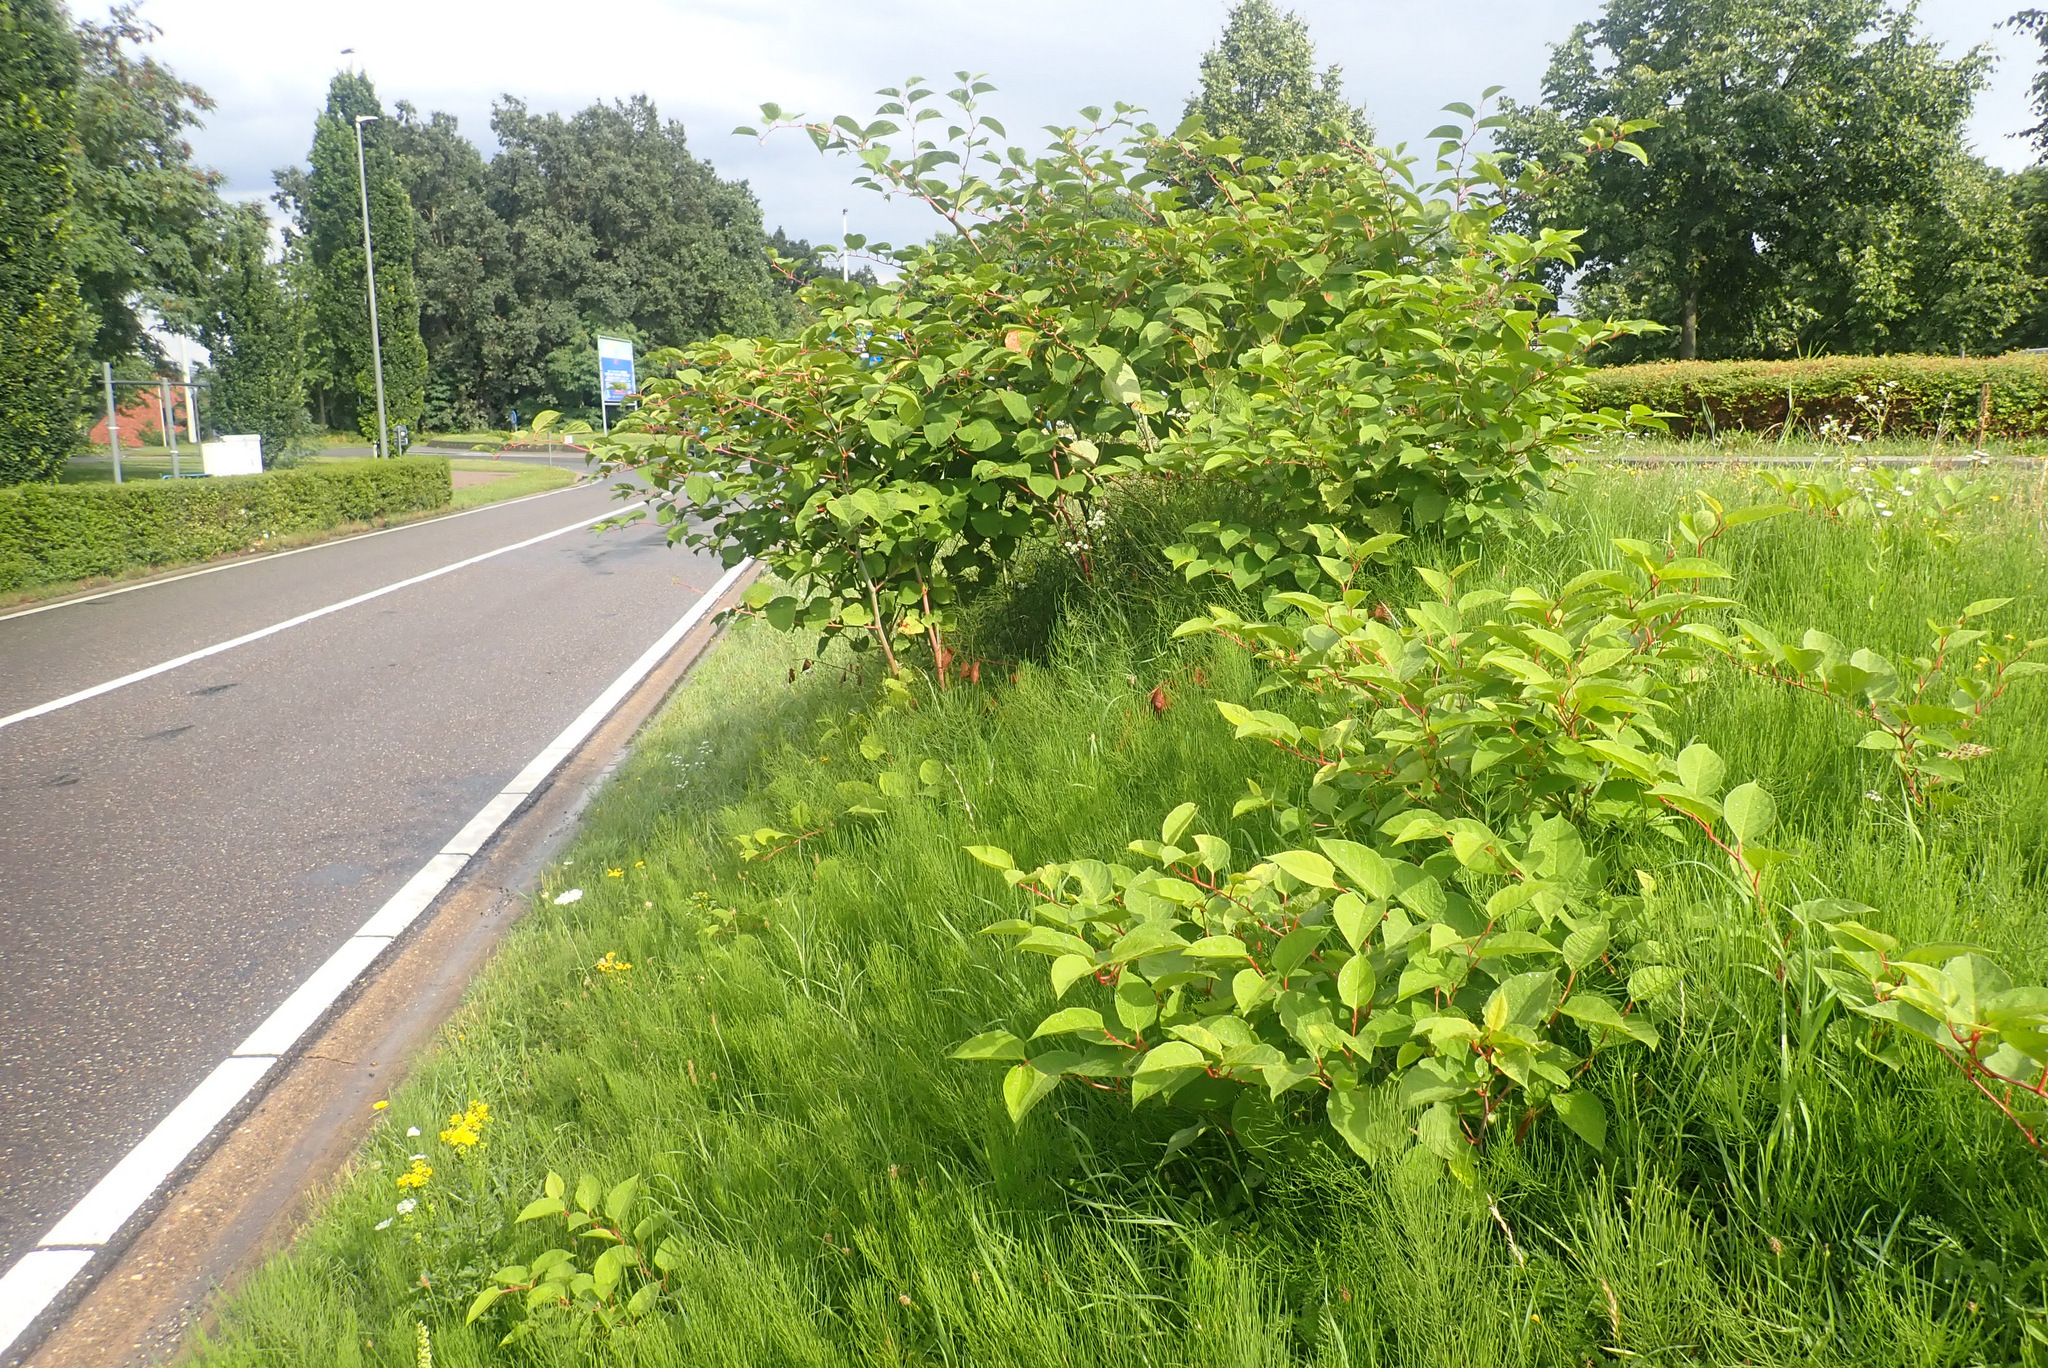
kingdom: Plantae
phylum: Tracheophyta
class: Magnoliopsida
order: Caryophyllales
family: Polygonaceae
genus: Reynoutria
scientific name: Reynoutria japonica
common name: Japanese knotweed
